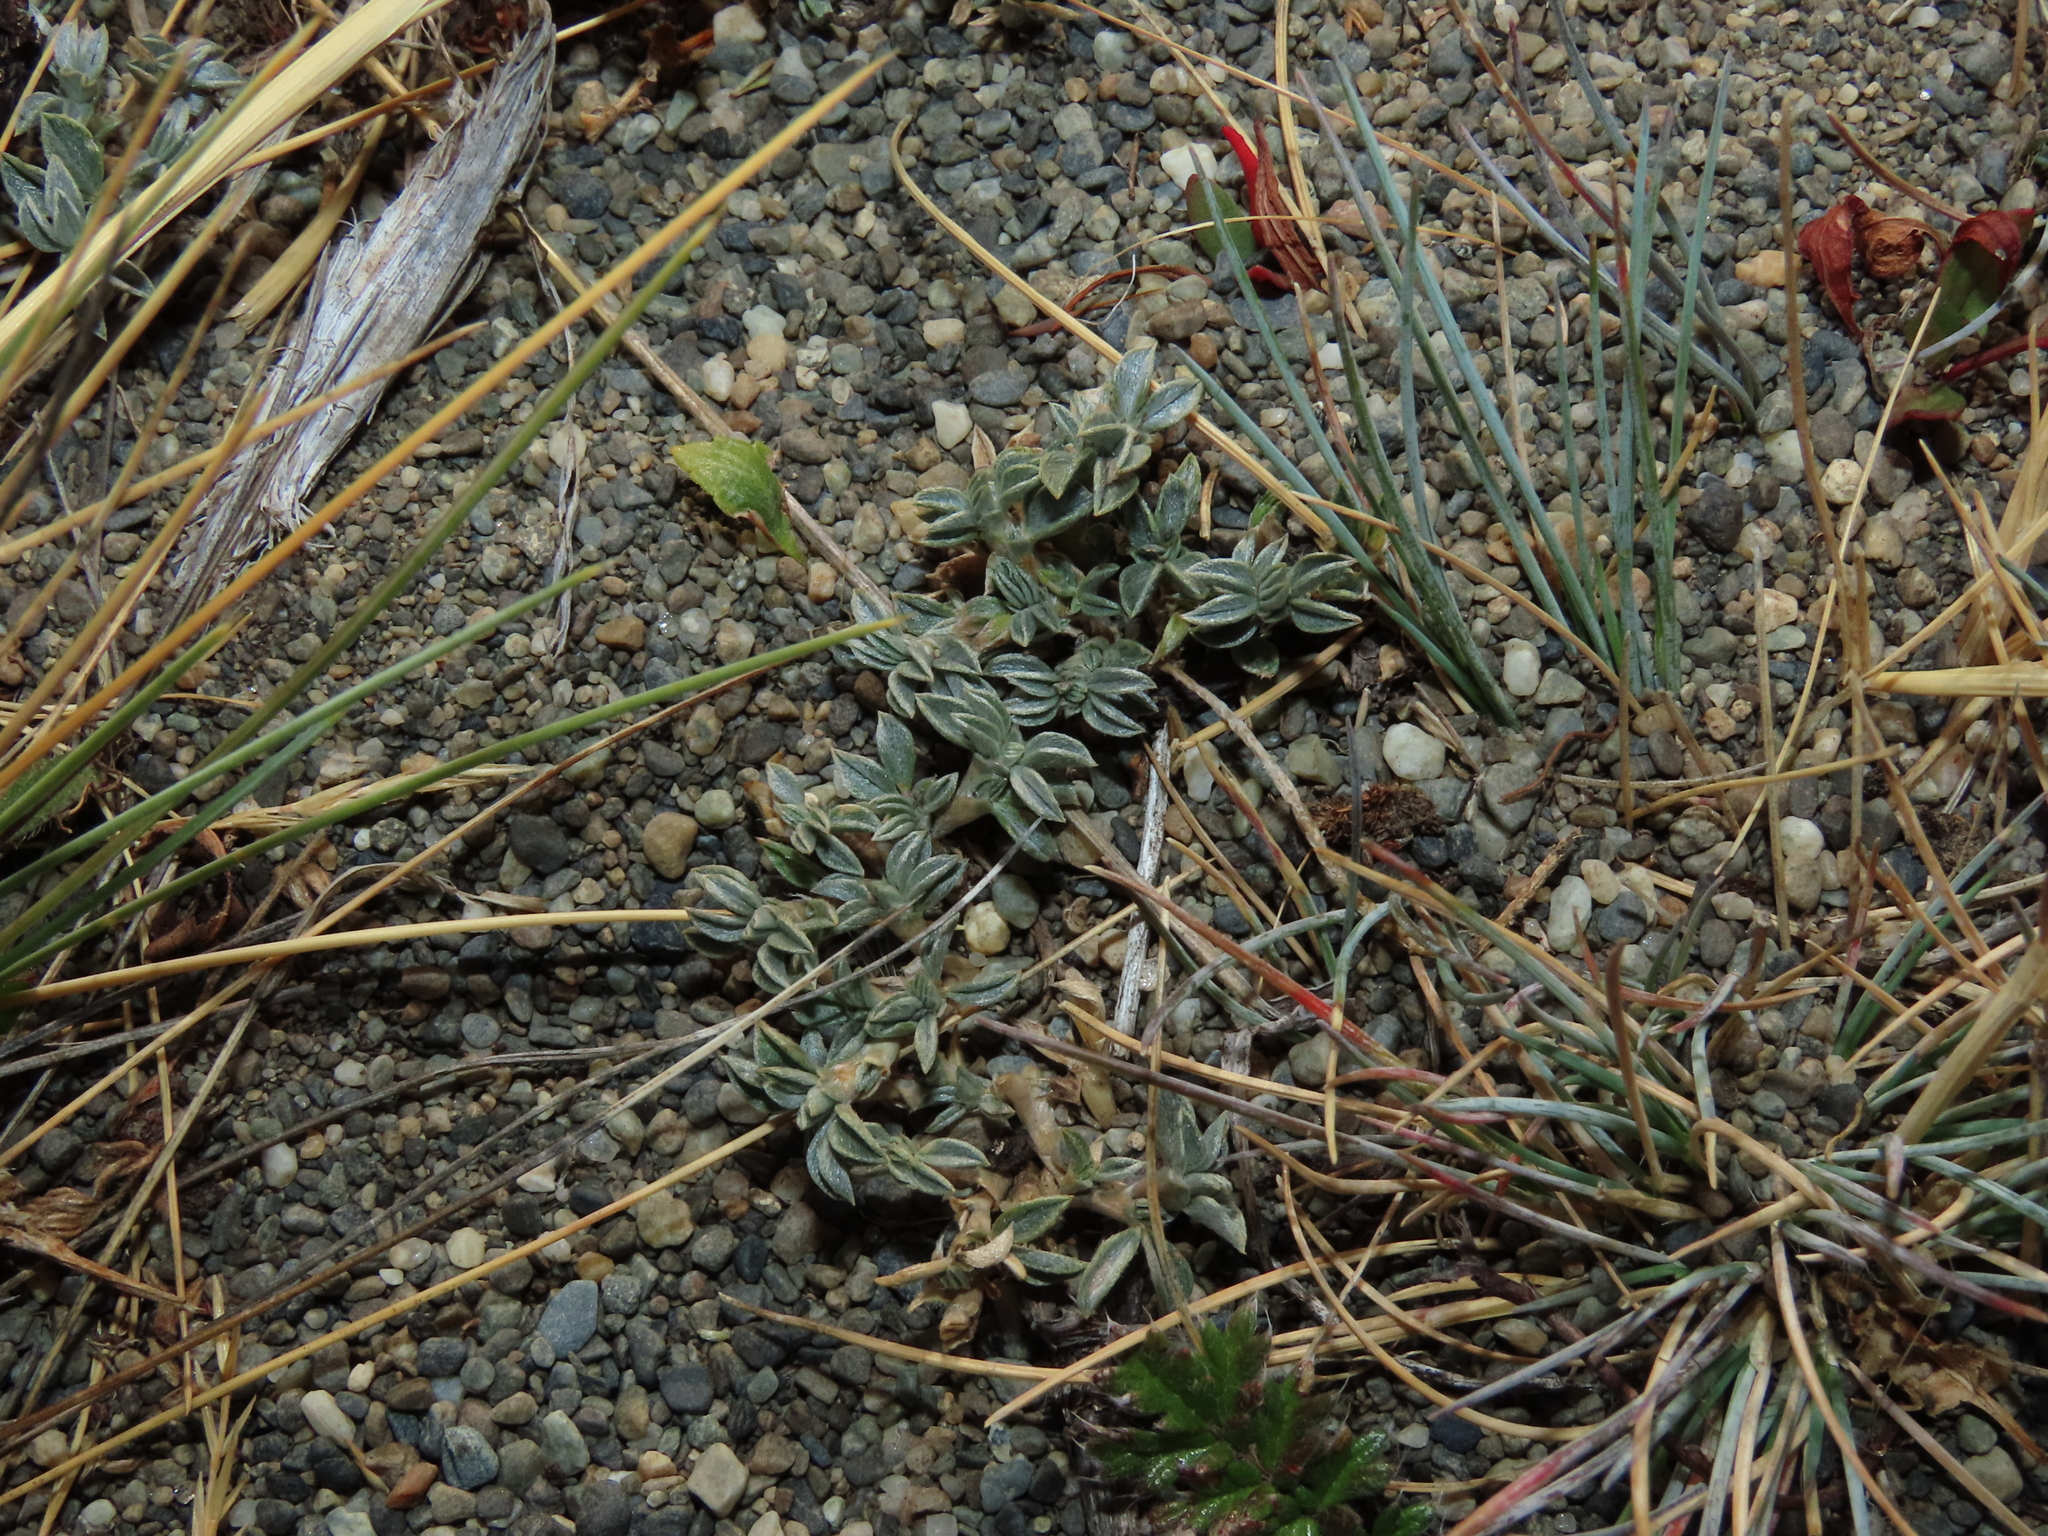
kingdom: Plantae
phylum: Tracheophyta
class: Magnoliopsida
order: Fabales
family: Fabaceae
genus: Adesmia
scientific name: Adesmia lotoides
